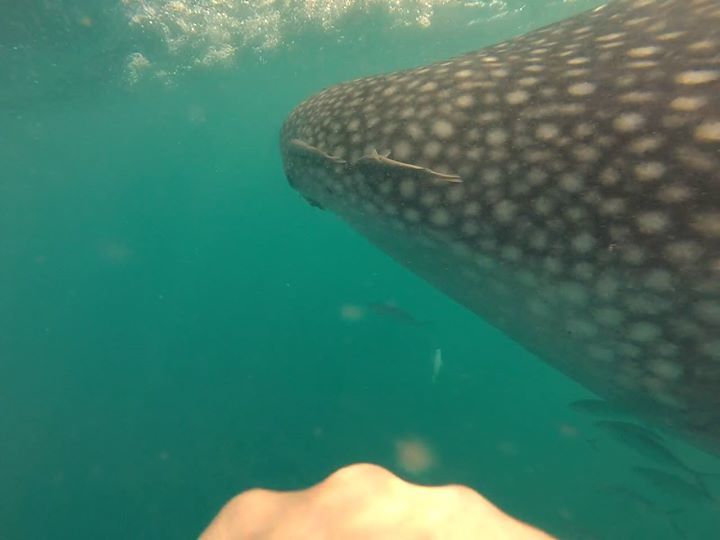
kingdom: Animalia
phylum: Chordata
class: Elasmobranchii
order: Orectolobiformes
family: Rhincodontidae
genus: Rhincodon
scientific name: Rhincodon typus
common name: Whale shark
